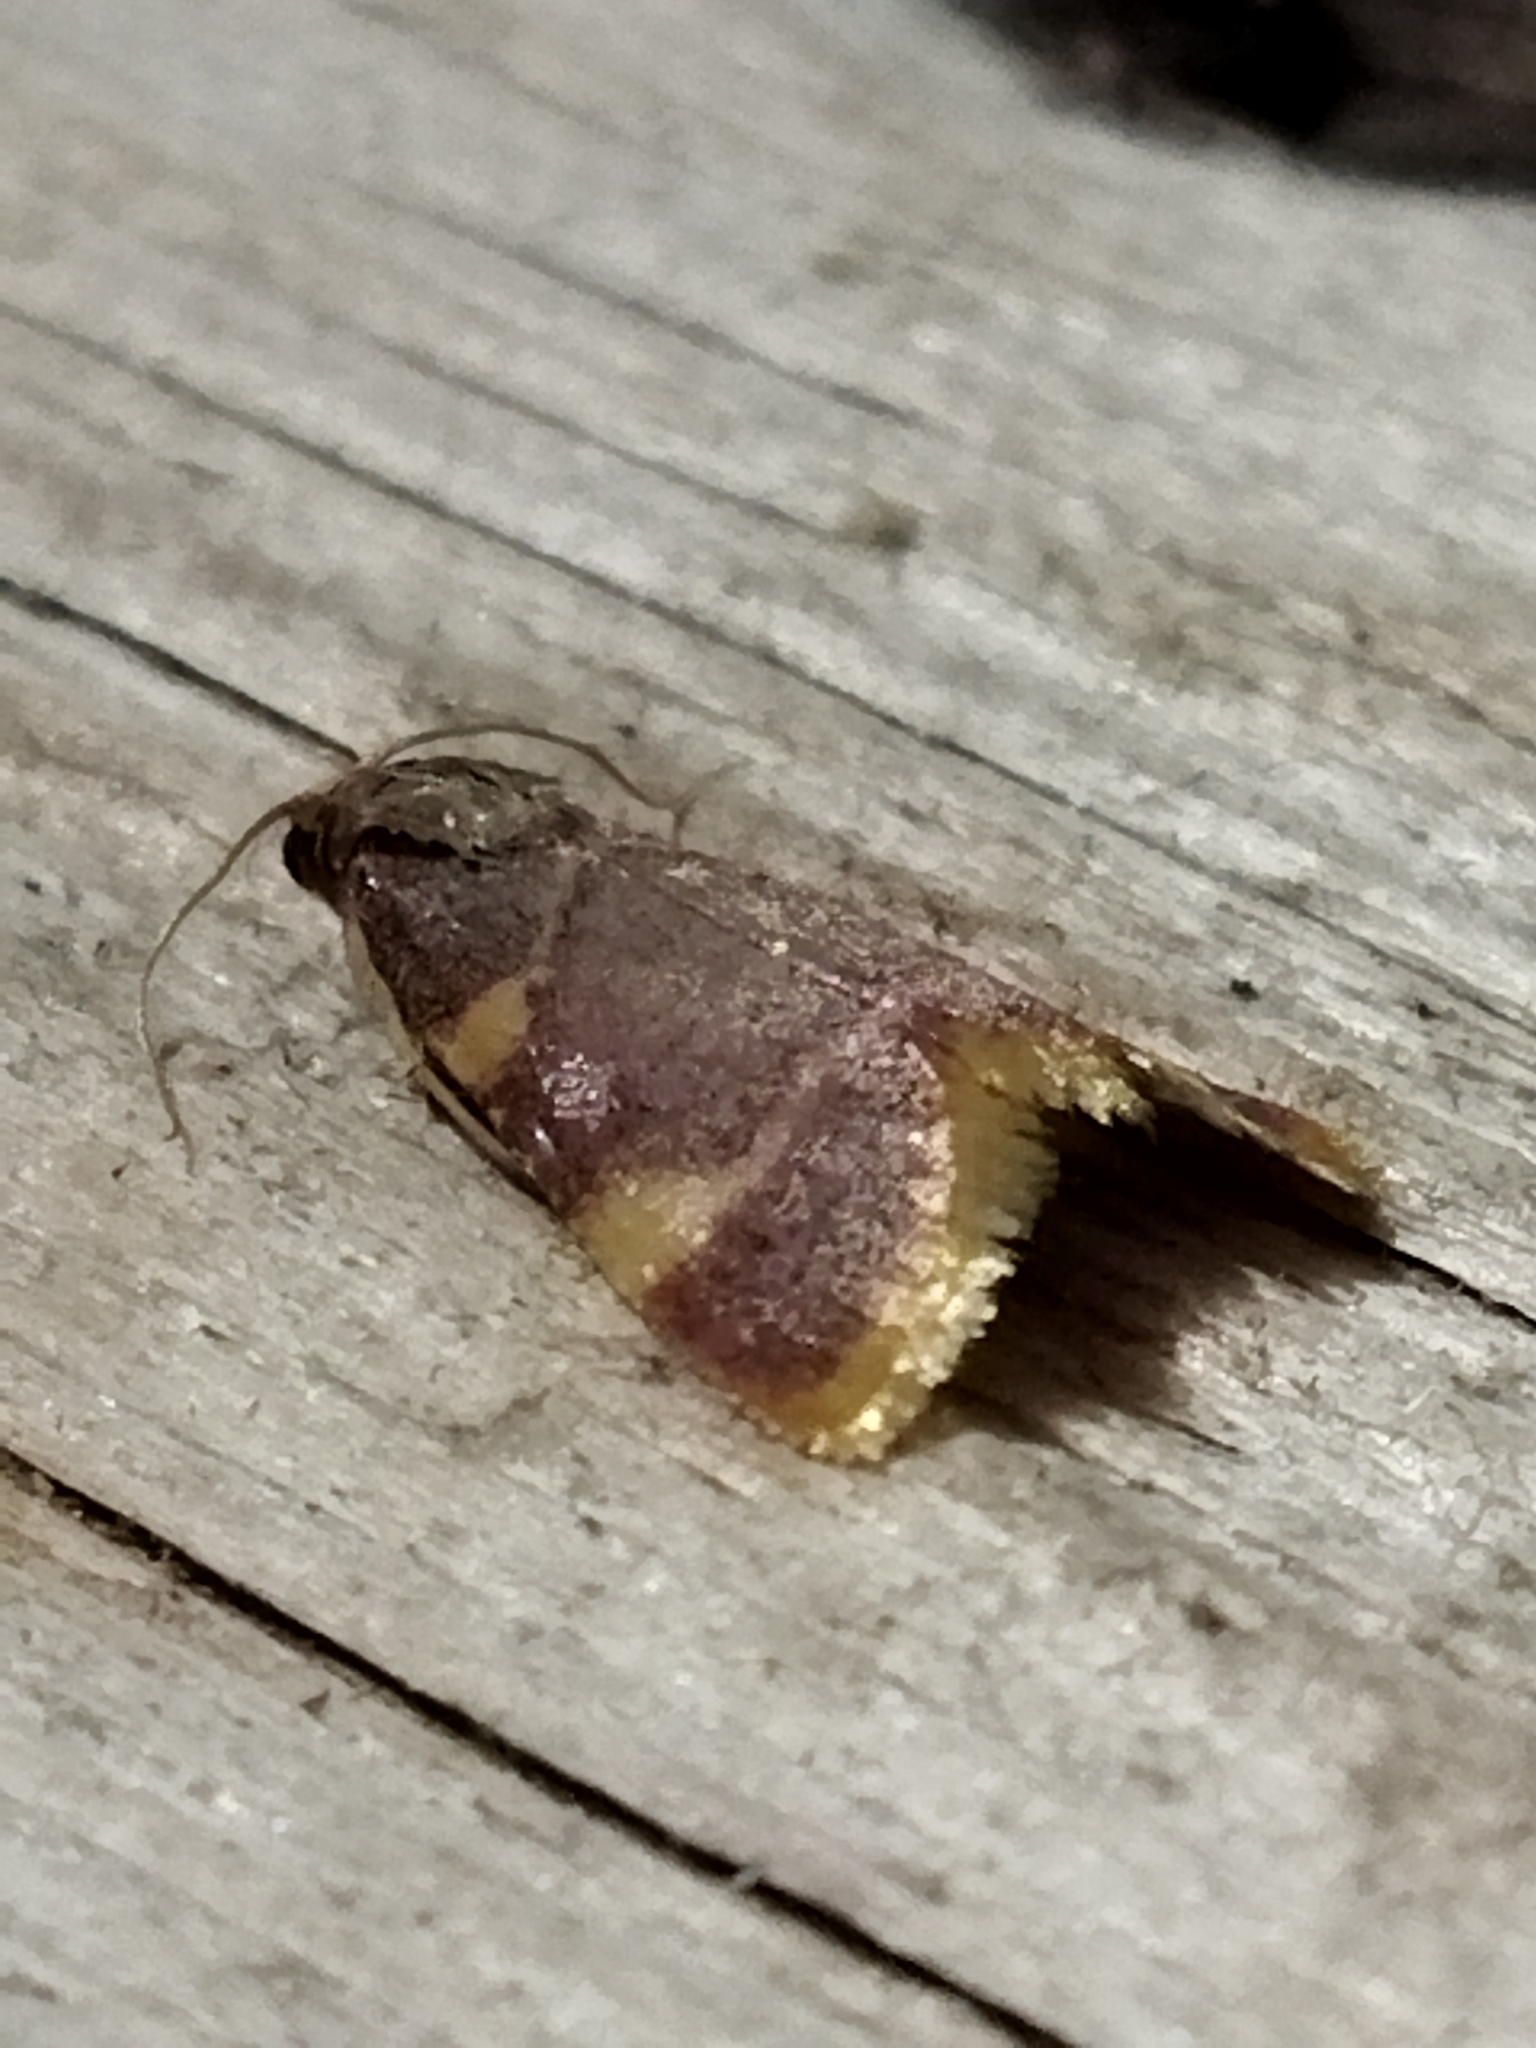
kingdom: Animalia
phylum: Arthropoda
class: Insecta
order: Lepidoptera
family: Pyralidae
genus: Hypsopygia
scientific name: Hypsopygia costalis
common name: Gold triangle
